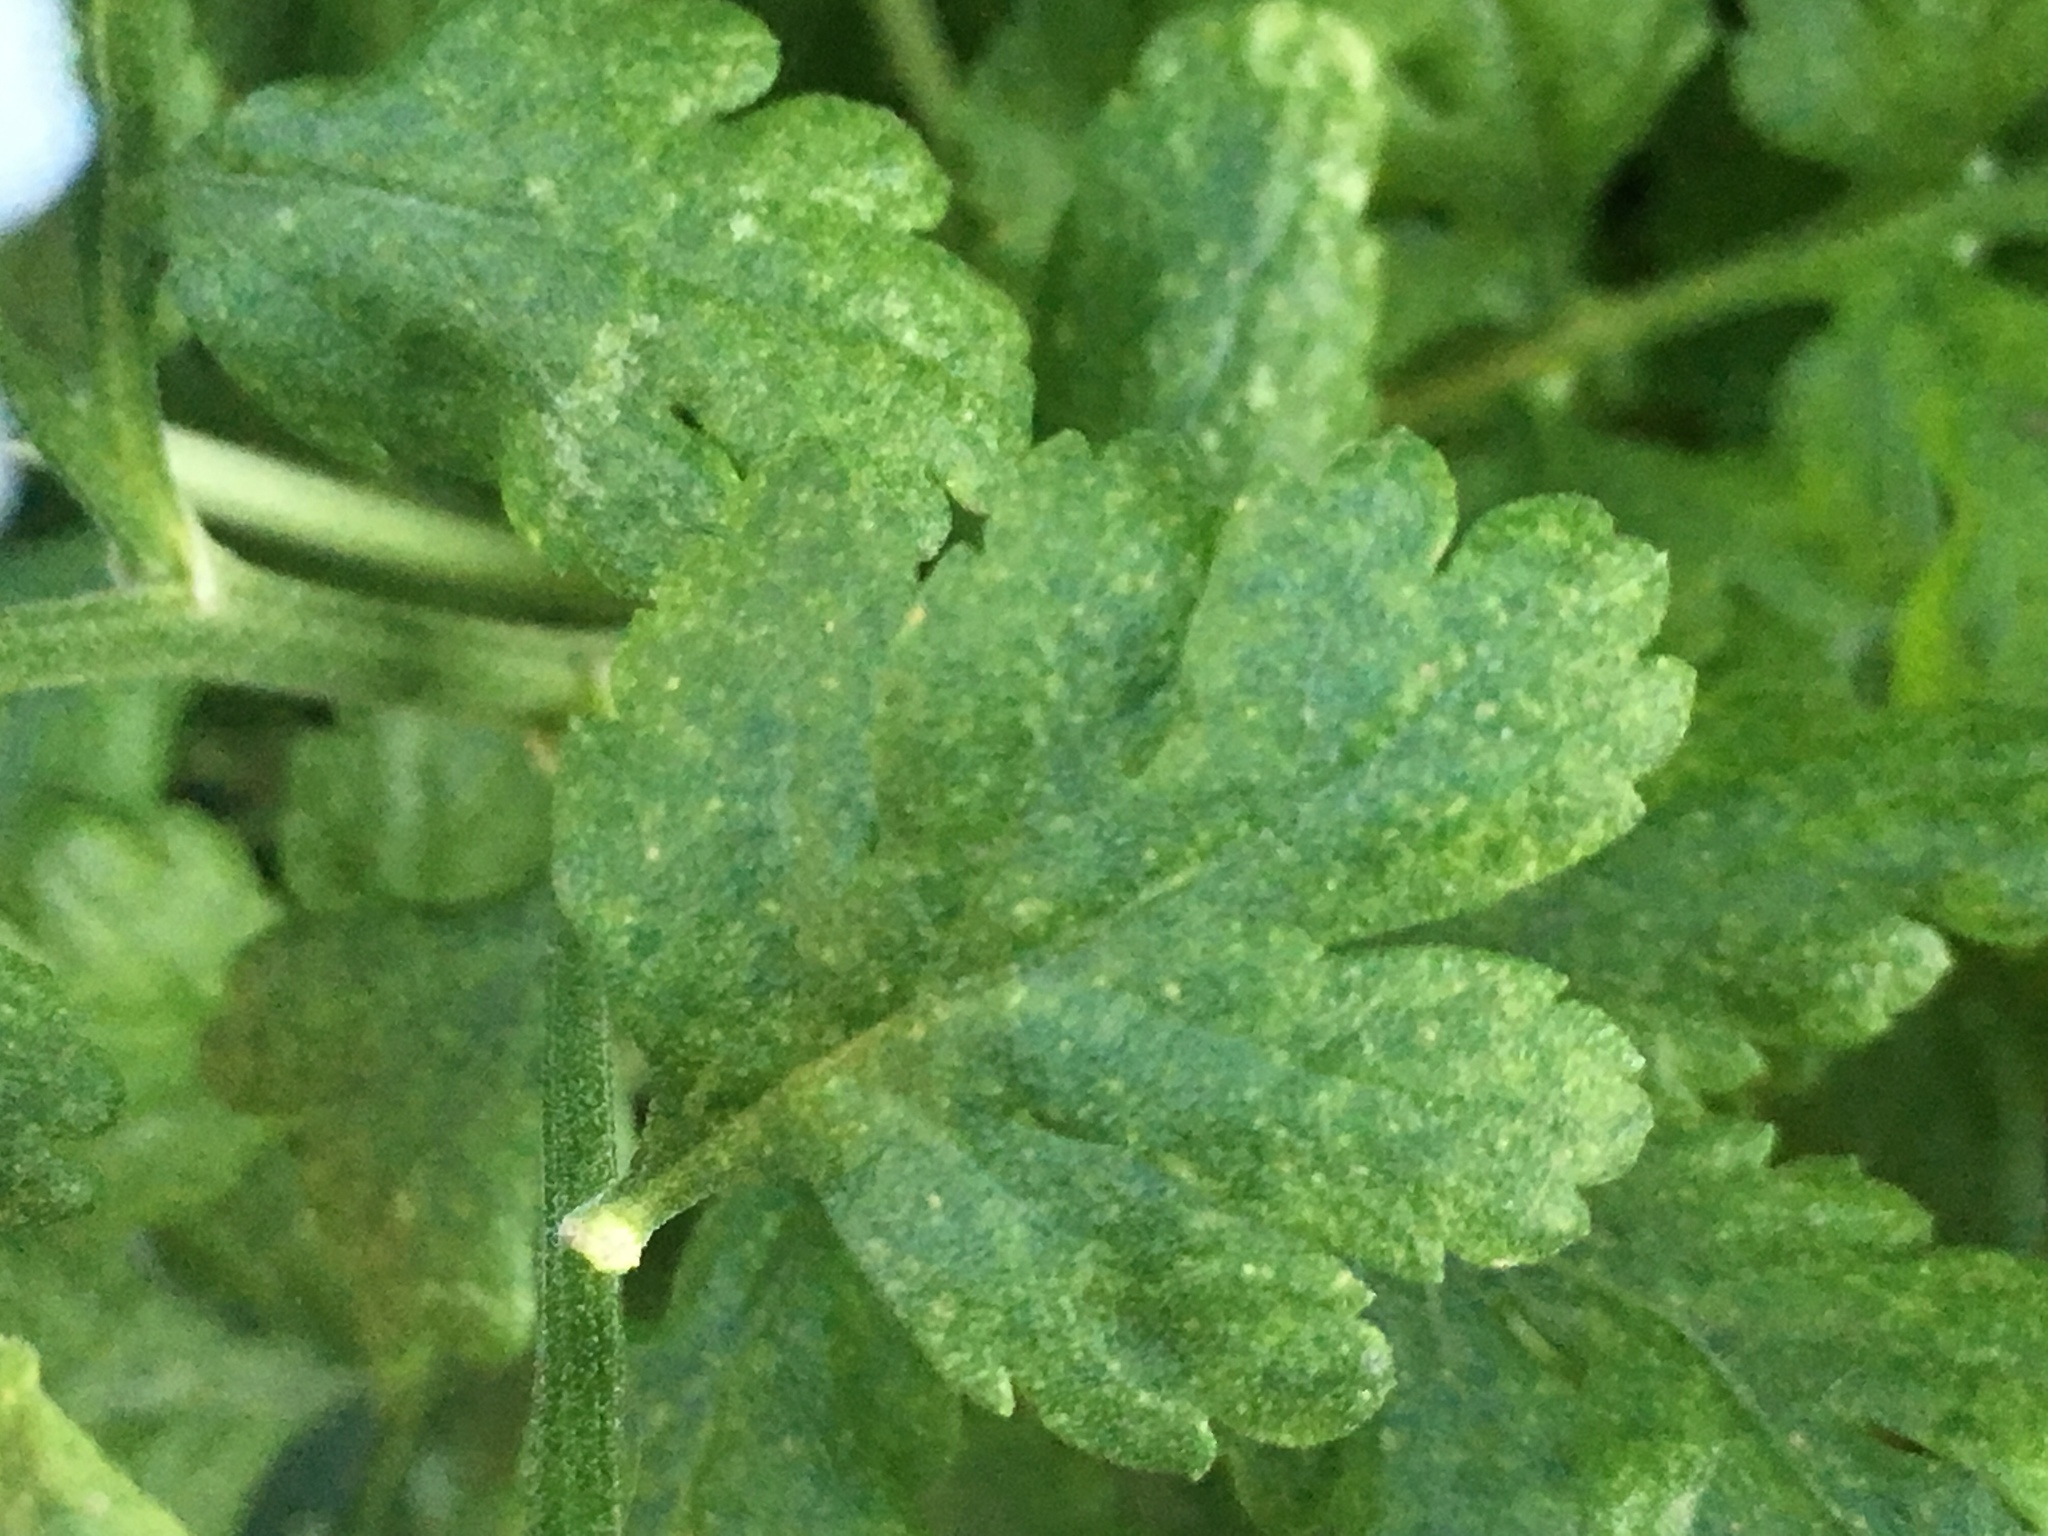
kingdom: Plantae
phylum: Tracheophyta
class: Magnoliopsida
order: Asterales
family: Asteraceae
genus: Tanacetum
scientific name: Tanacetum parthenium
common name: Feverfew
